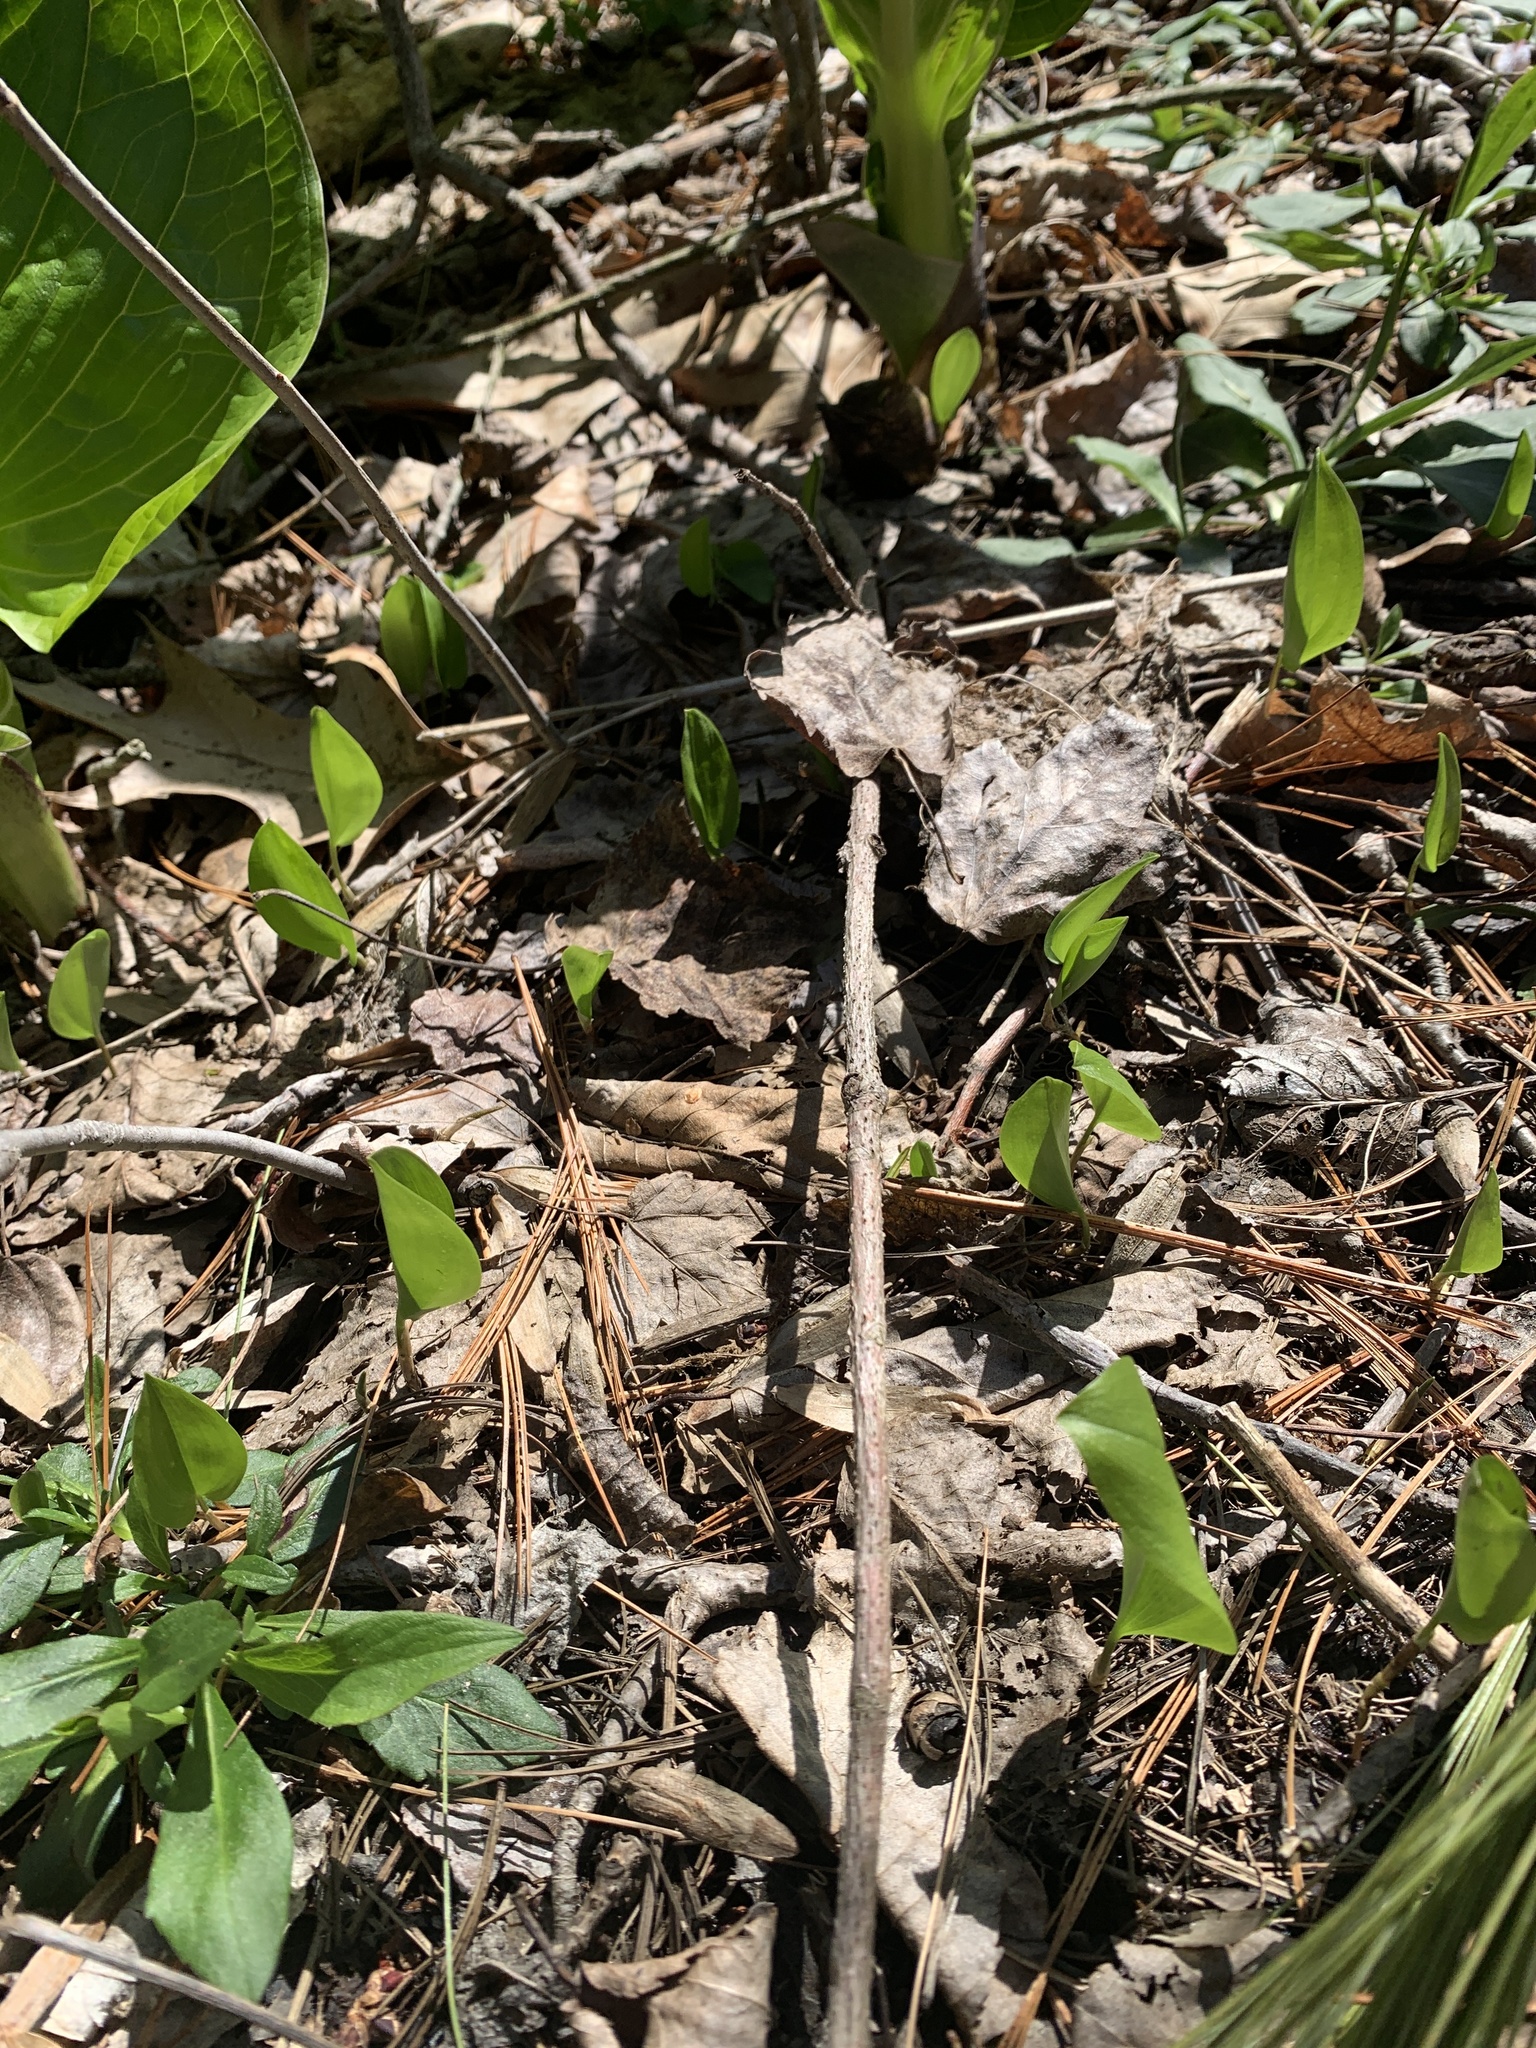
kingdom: Plantae
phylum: Tracheophyta
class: Liliopsida
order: Asparagales
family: Asparagaceae
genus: Maianthemum
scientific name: Maianthemum canadense
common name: False lily-of-the-valley
